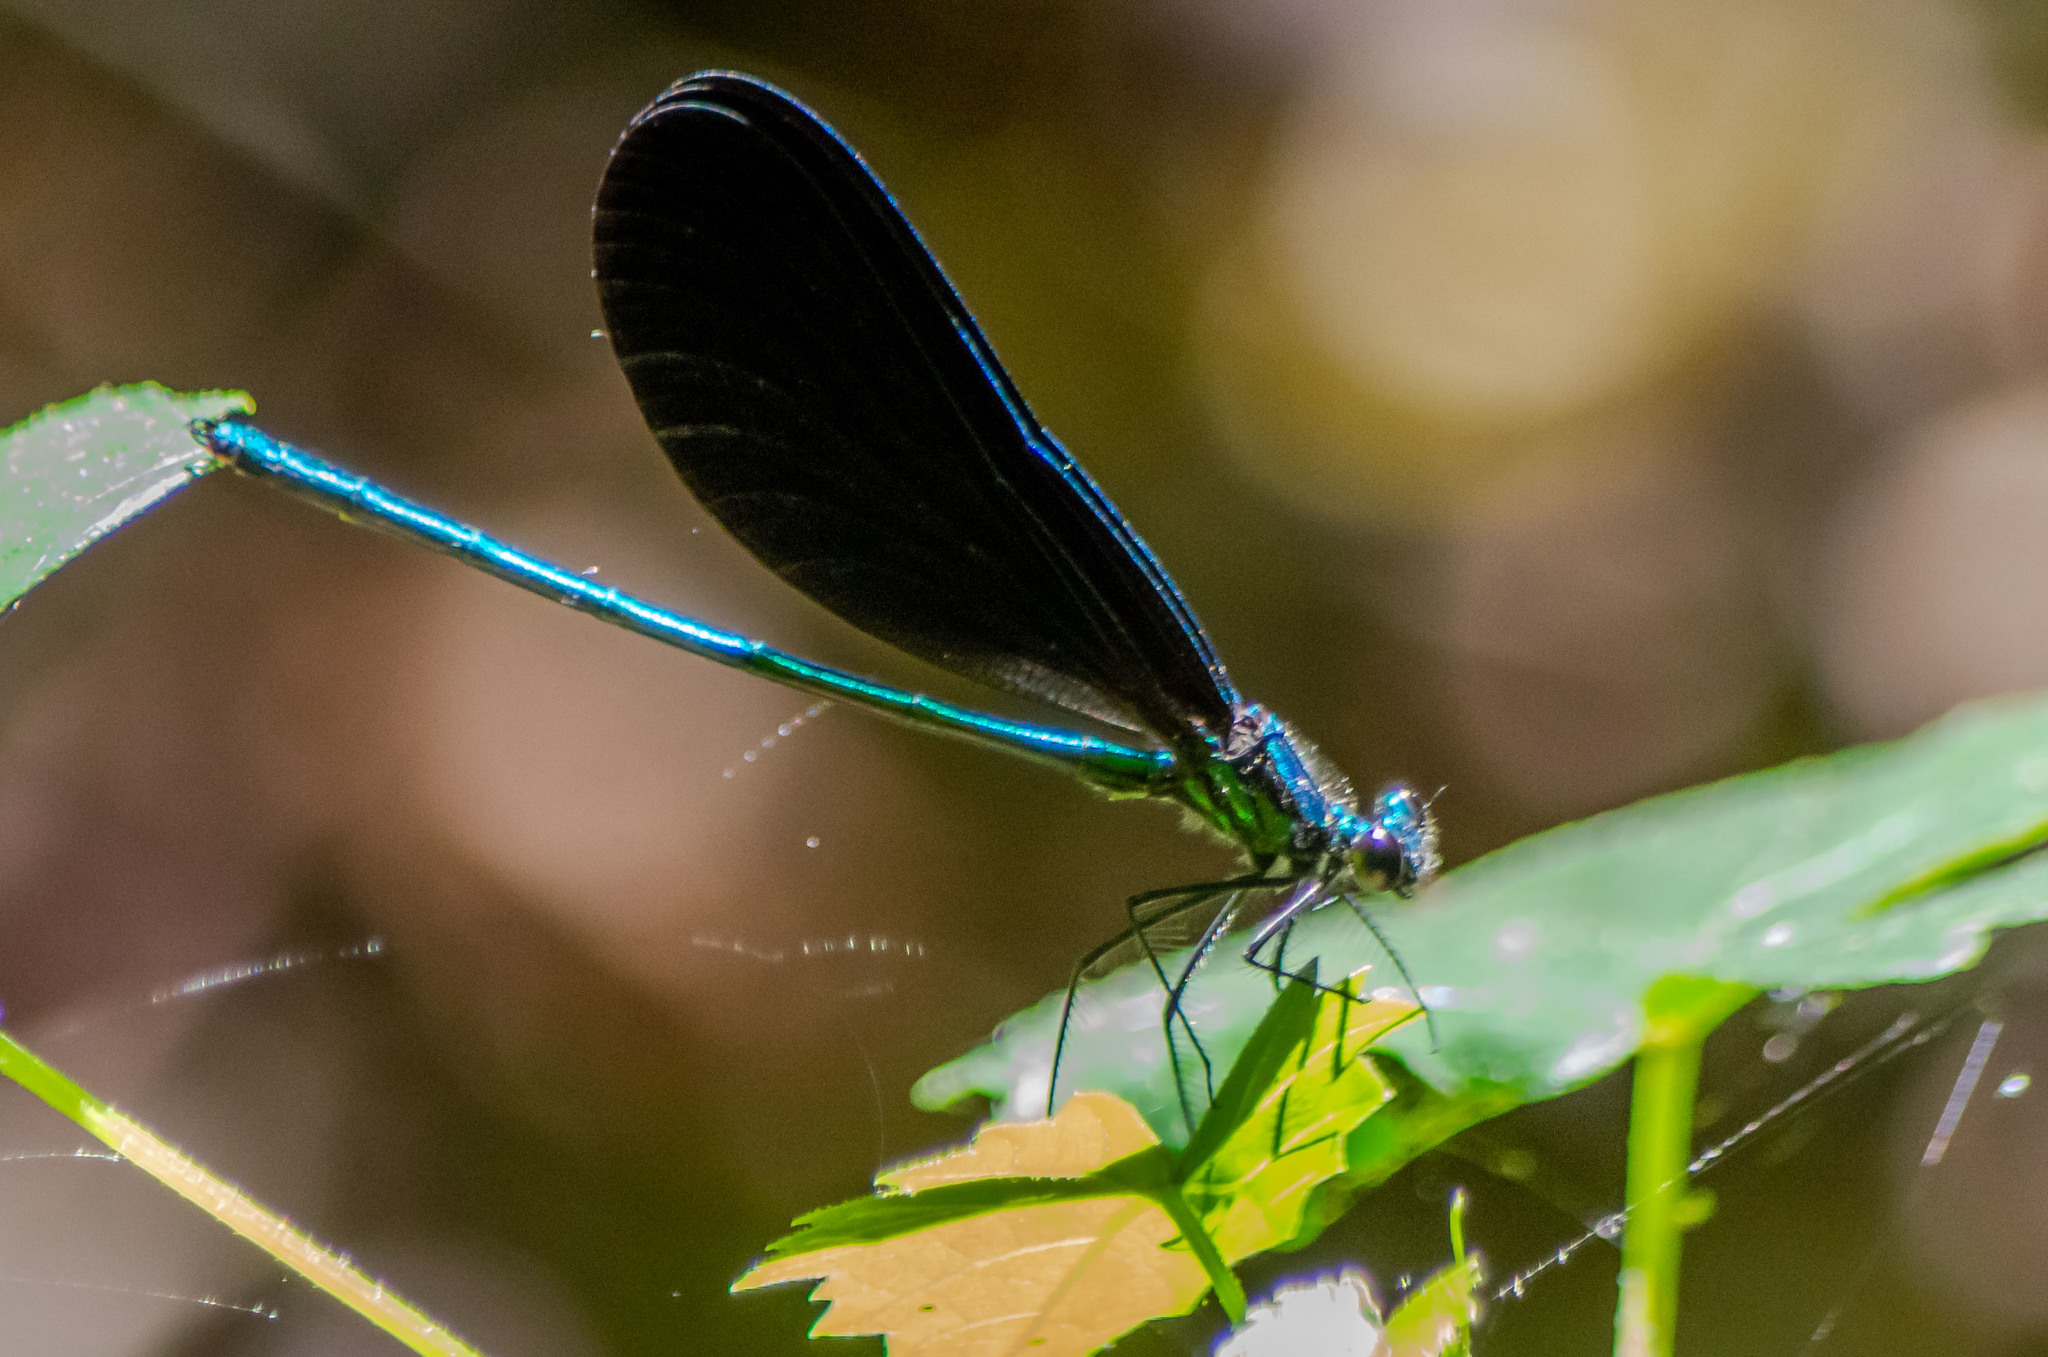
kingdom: Animalia
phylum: Arthropoda
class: Insecta
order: Odonata
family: Calopterygidae
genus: Calopteryx
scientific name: Calopteryx maculata
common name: Ebony jewelwing
